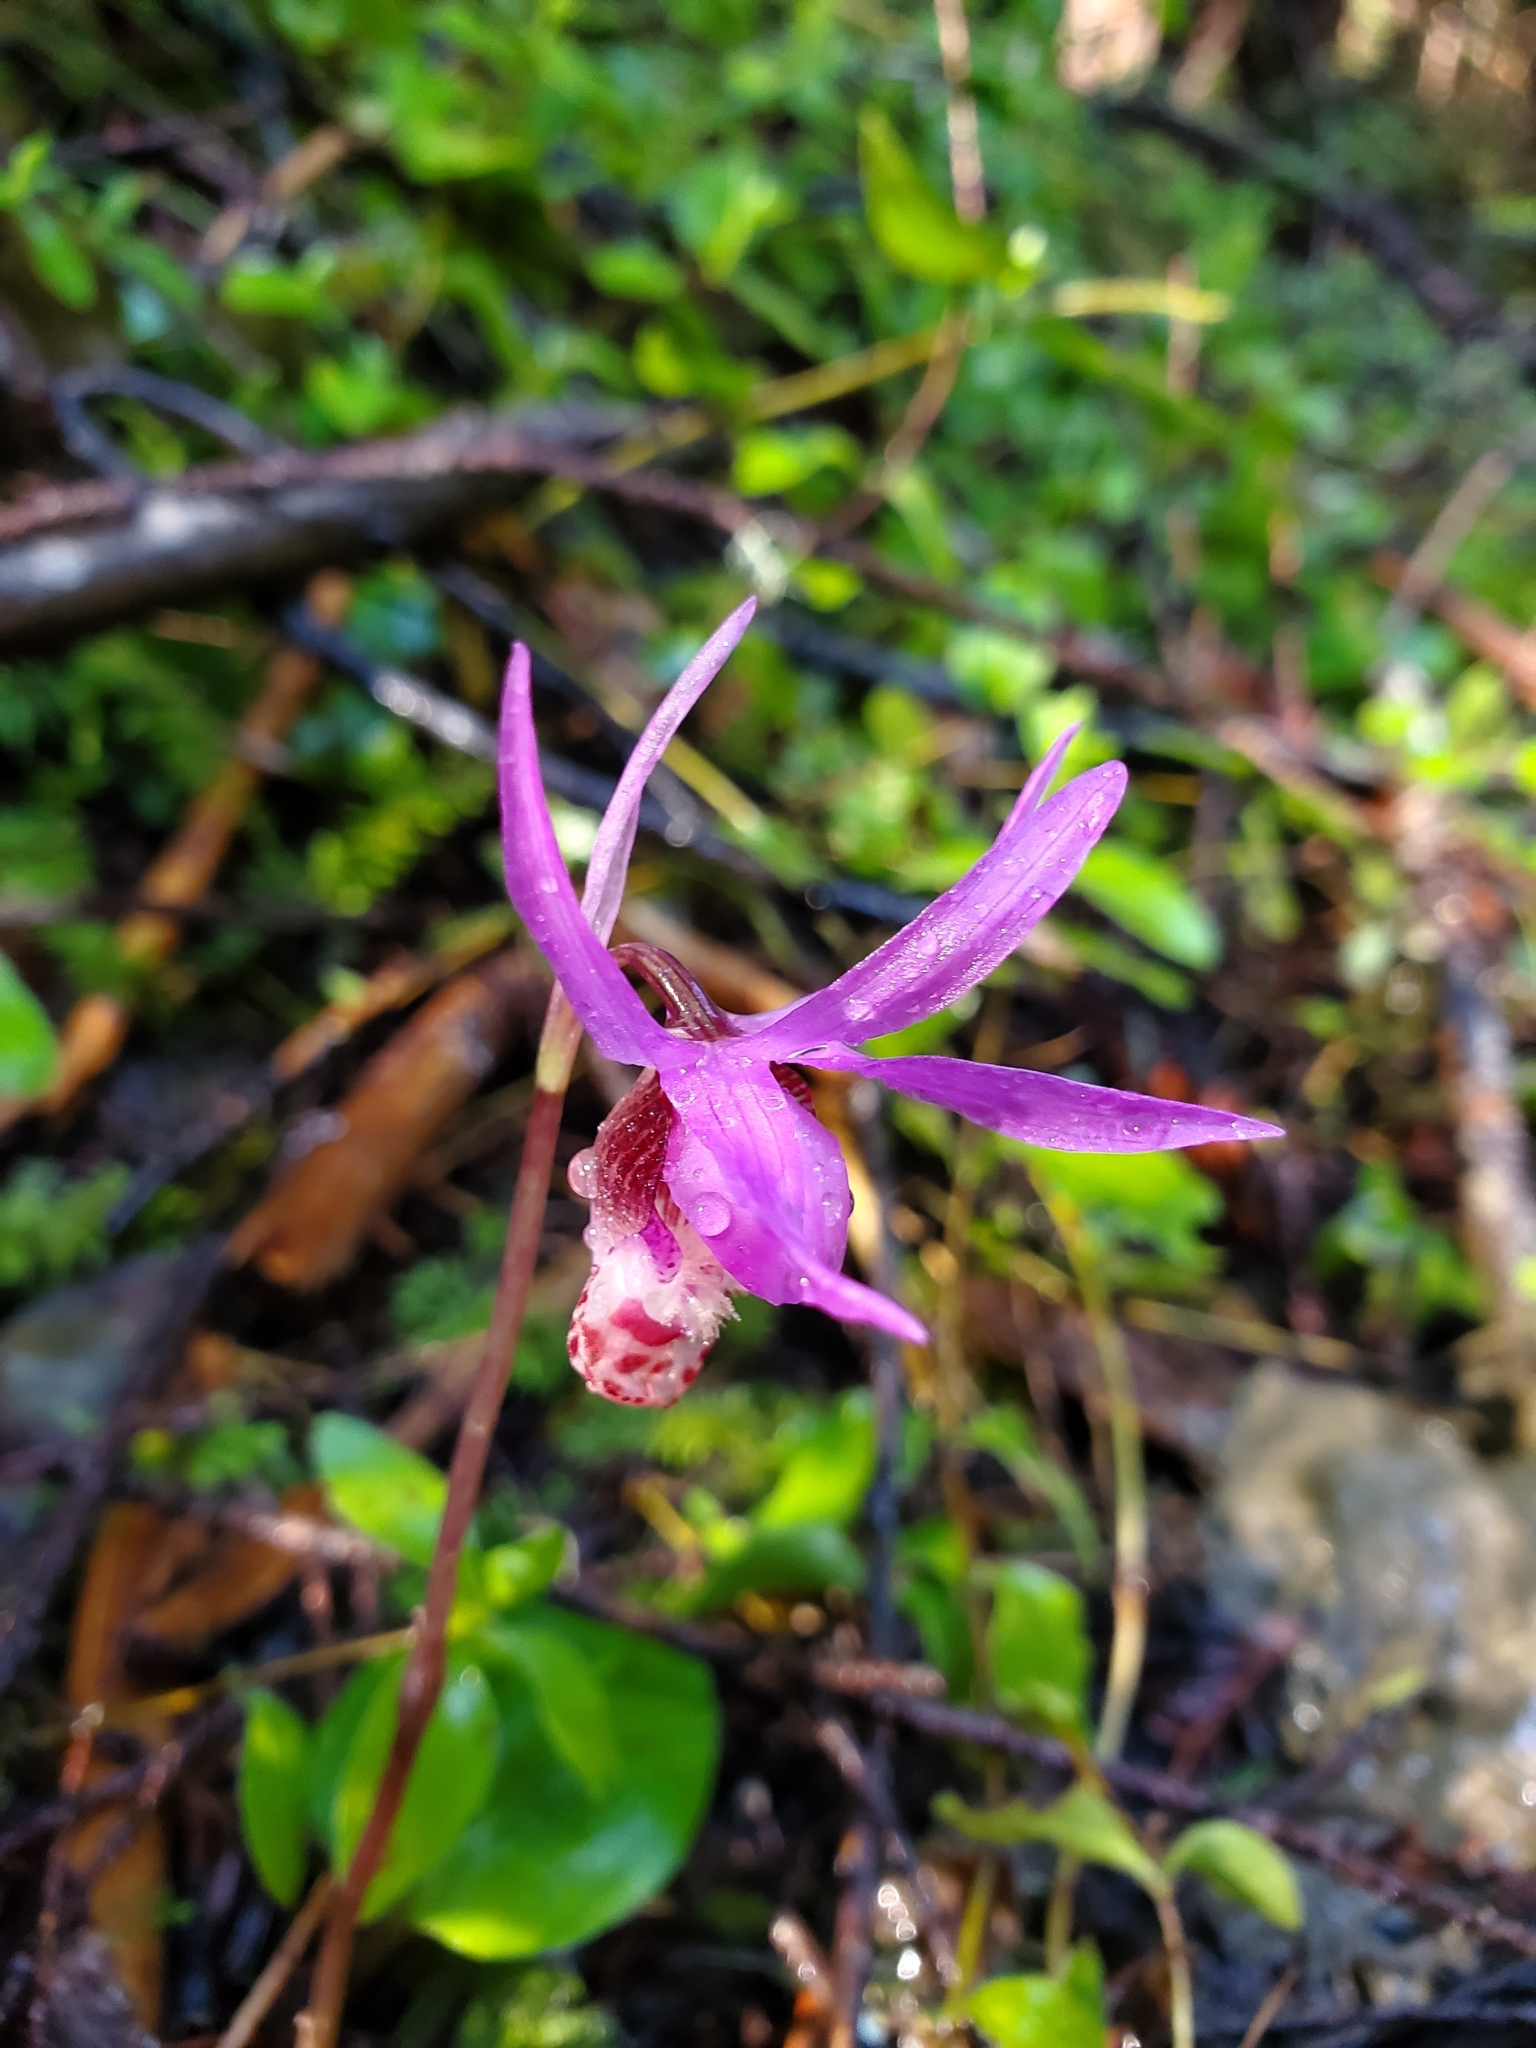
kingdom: Plantae
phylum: Tracheophyta
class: Liliopsida
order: Asparagales
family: Orchidaceae
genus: Calypso
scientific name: Calypso bulbosa
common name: Calypso
